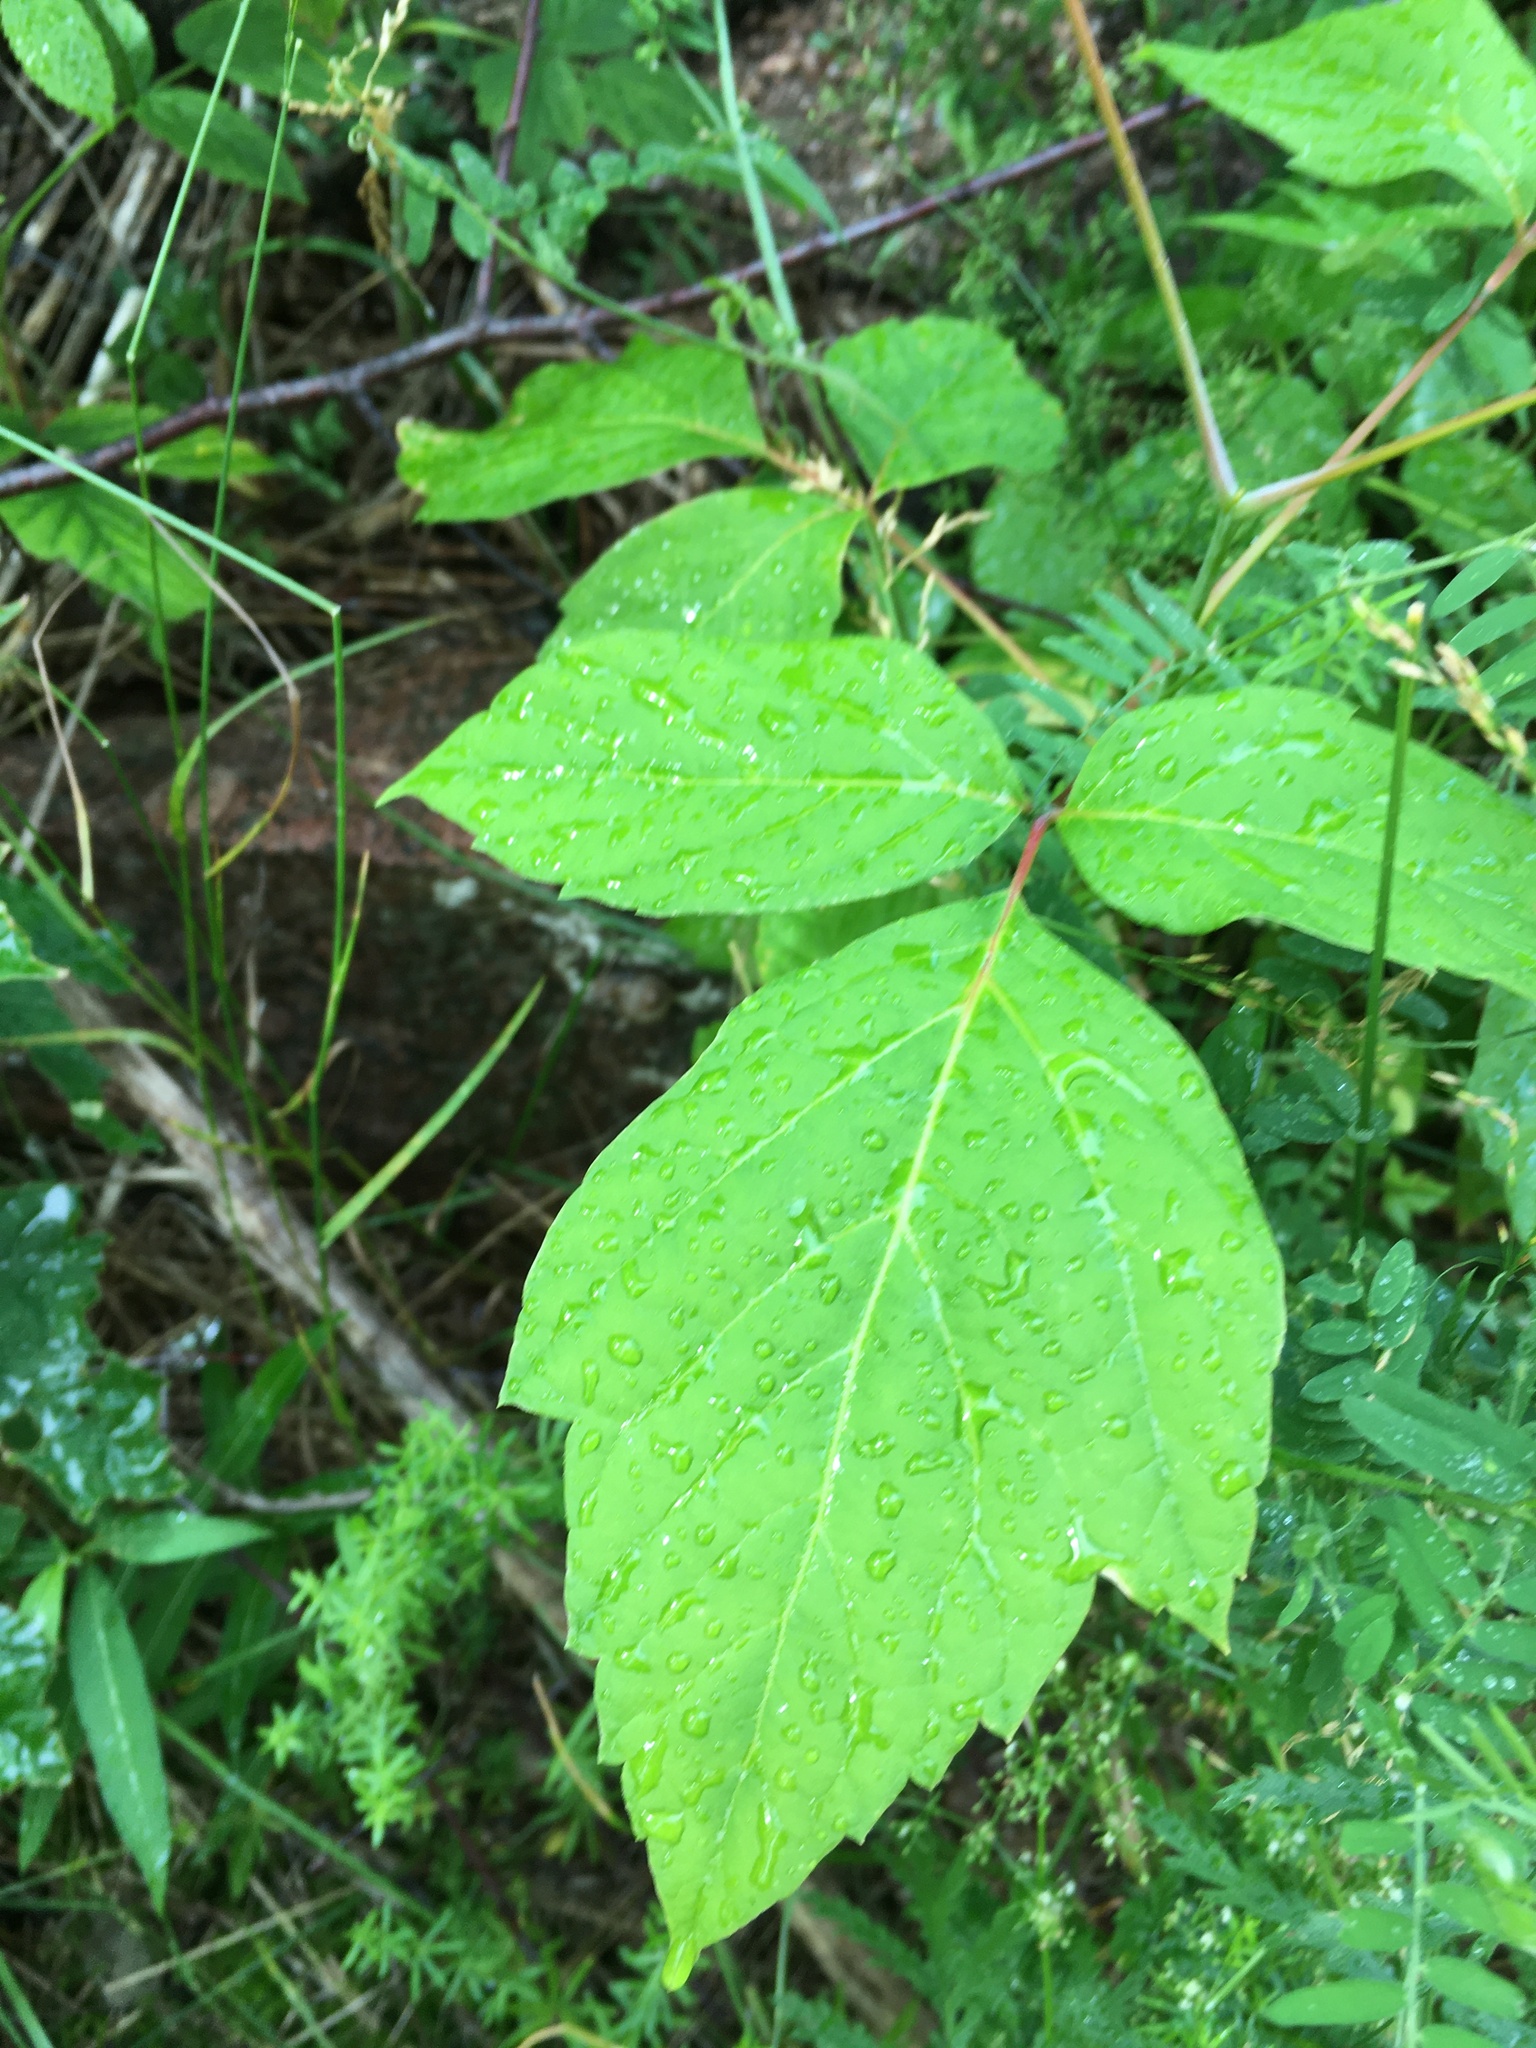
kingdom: Plantae
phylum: Tracheophyta
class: Magnoliopsida
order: Sapindales
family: Sapindaceae
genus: Acer
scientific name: Acer negundo
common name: Ashleaf maple
